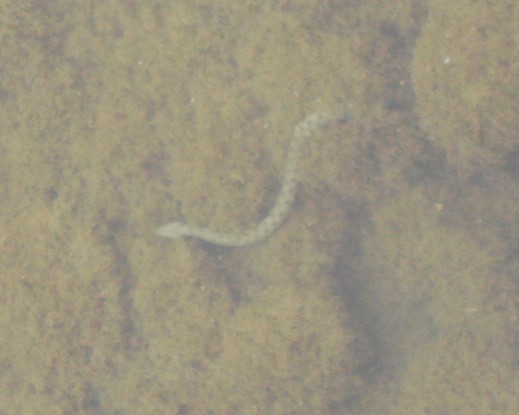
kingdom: Animalia
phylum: Chordata
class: Squamata
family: Colubridae
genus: Natrix
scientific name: Natrix tessellata
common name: Dice snake
